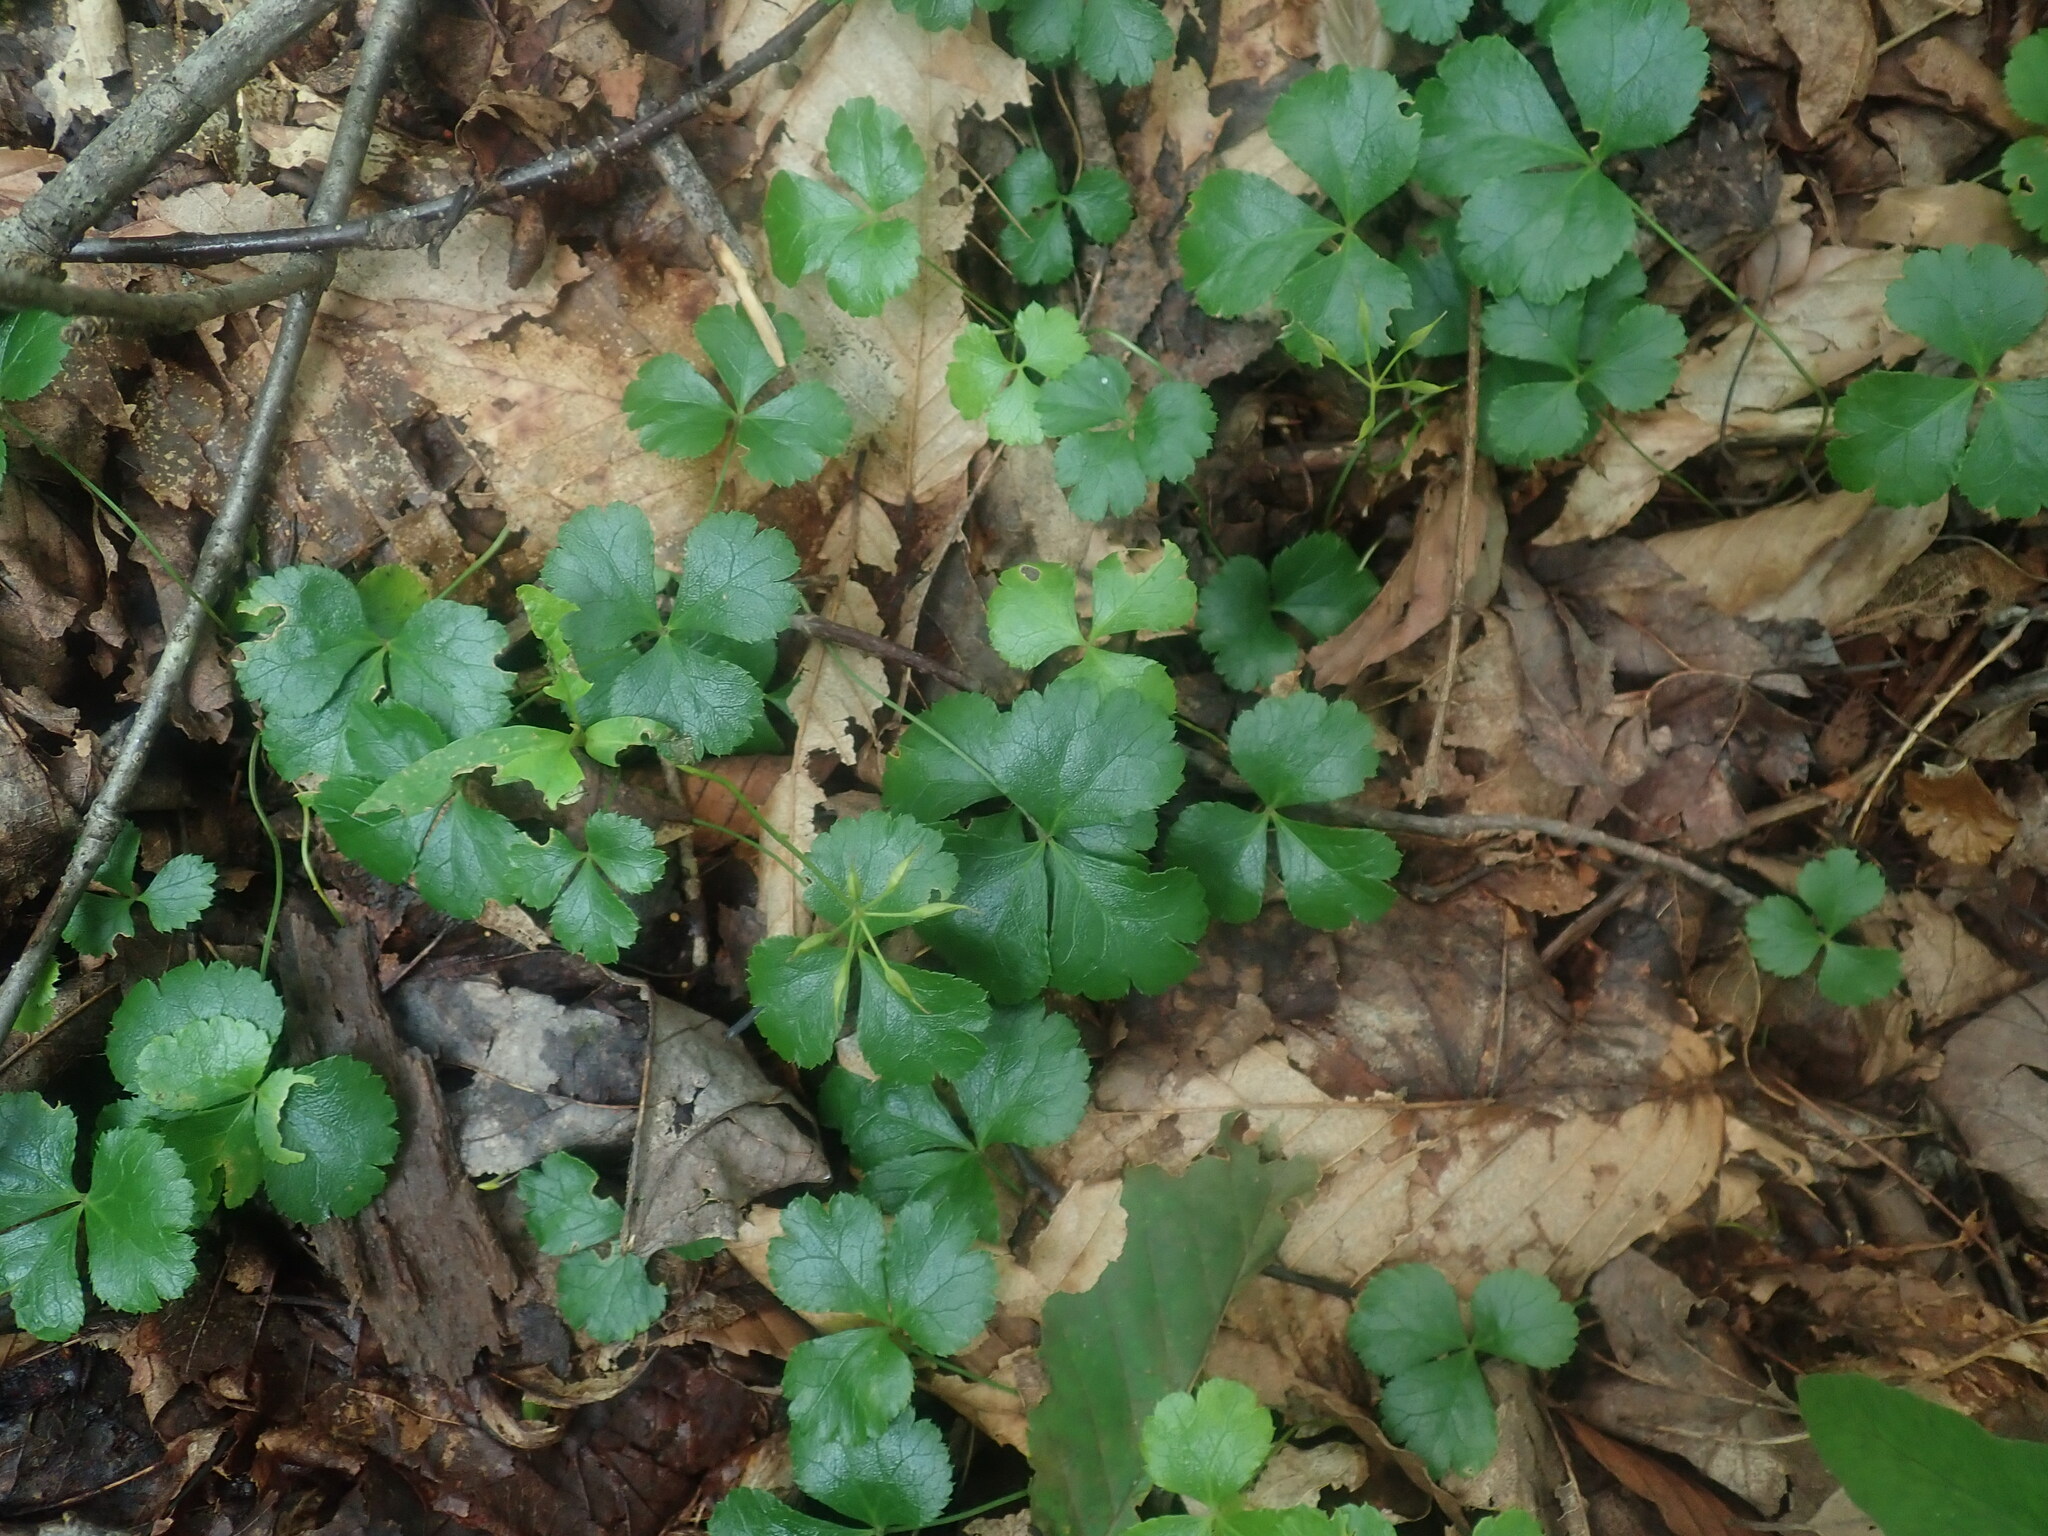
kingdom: Plantae
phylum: Tracheophyta
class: Magnoliopsida
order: Ranunculales
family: Ranunculaceae
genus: Coptis
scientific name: Coptis trifolia
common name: Canker-root
